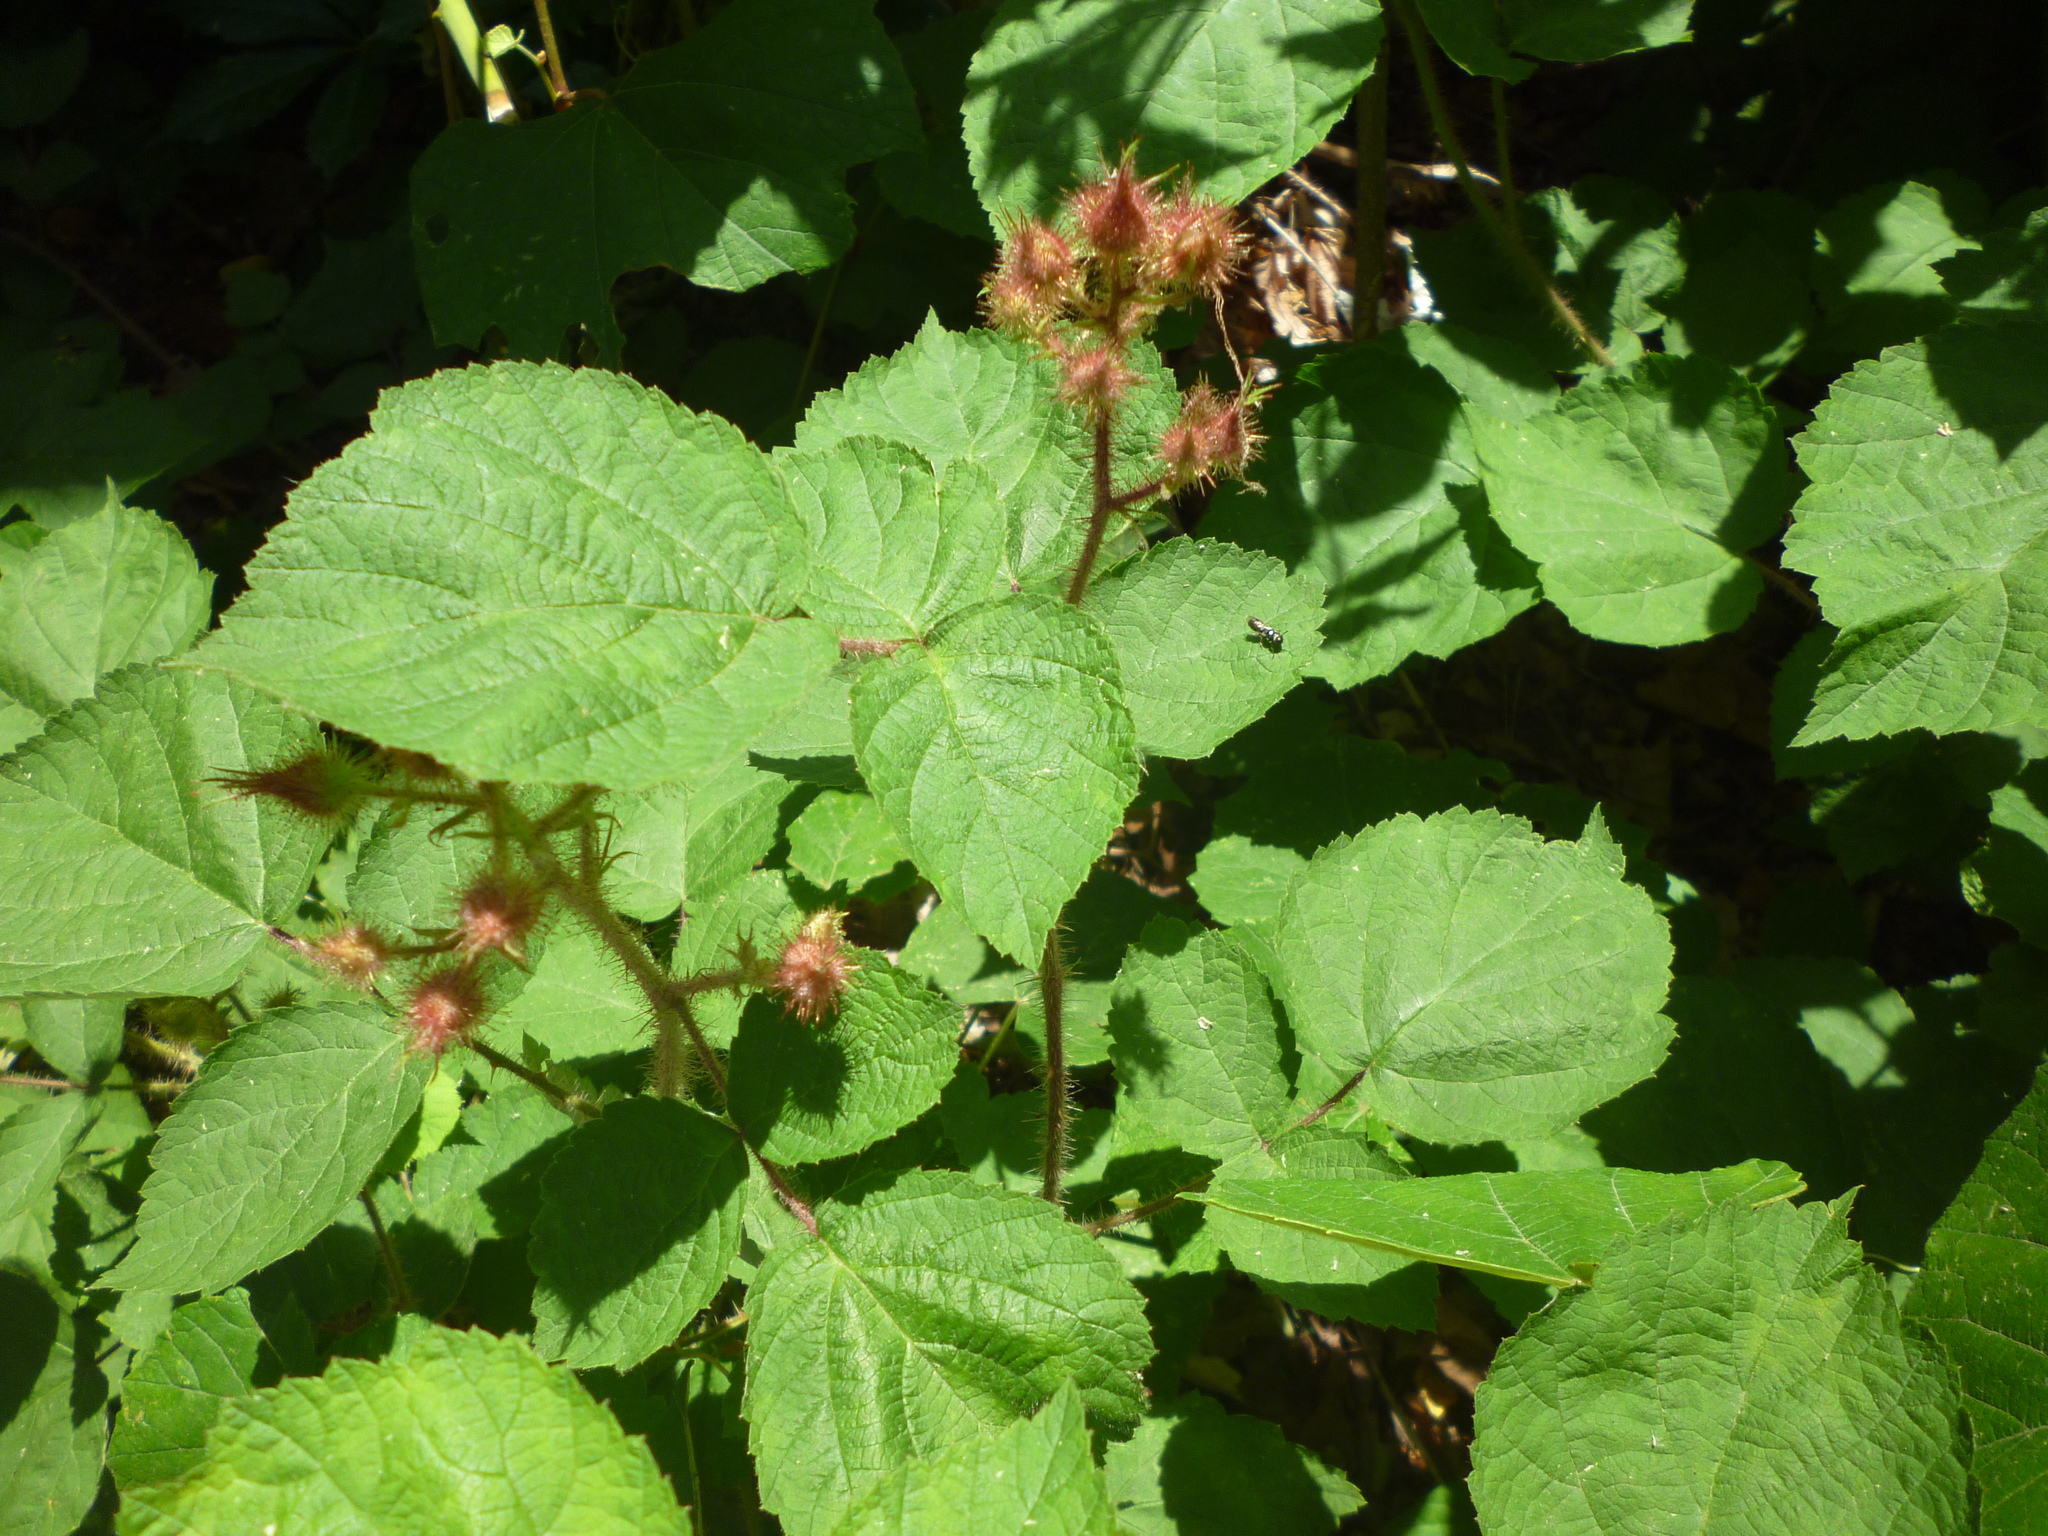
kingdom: Plantae
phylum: Tracheophyta
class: Magnoliopsida
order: Rosales
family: Rosaceae
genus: Rubus
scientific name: Rubus phoenicolasius
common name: Japanese wineberry
